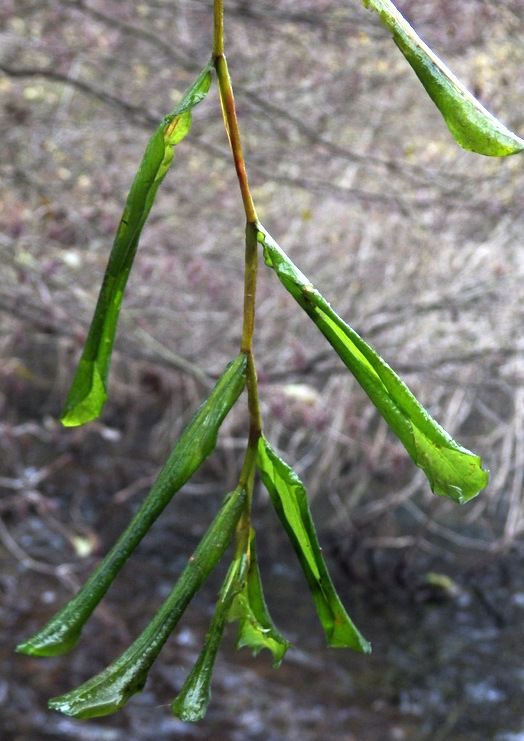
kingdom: Plantae
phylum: Tracheophyta
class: Liliopsida
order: Alismatales
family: Potamogetonaceae
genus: Potamogeton
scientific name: Potamogeton salicifolius
